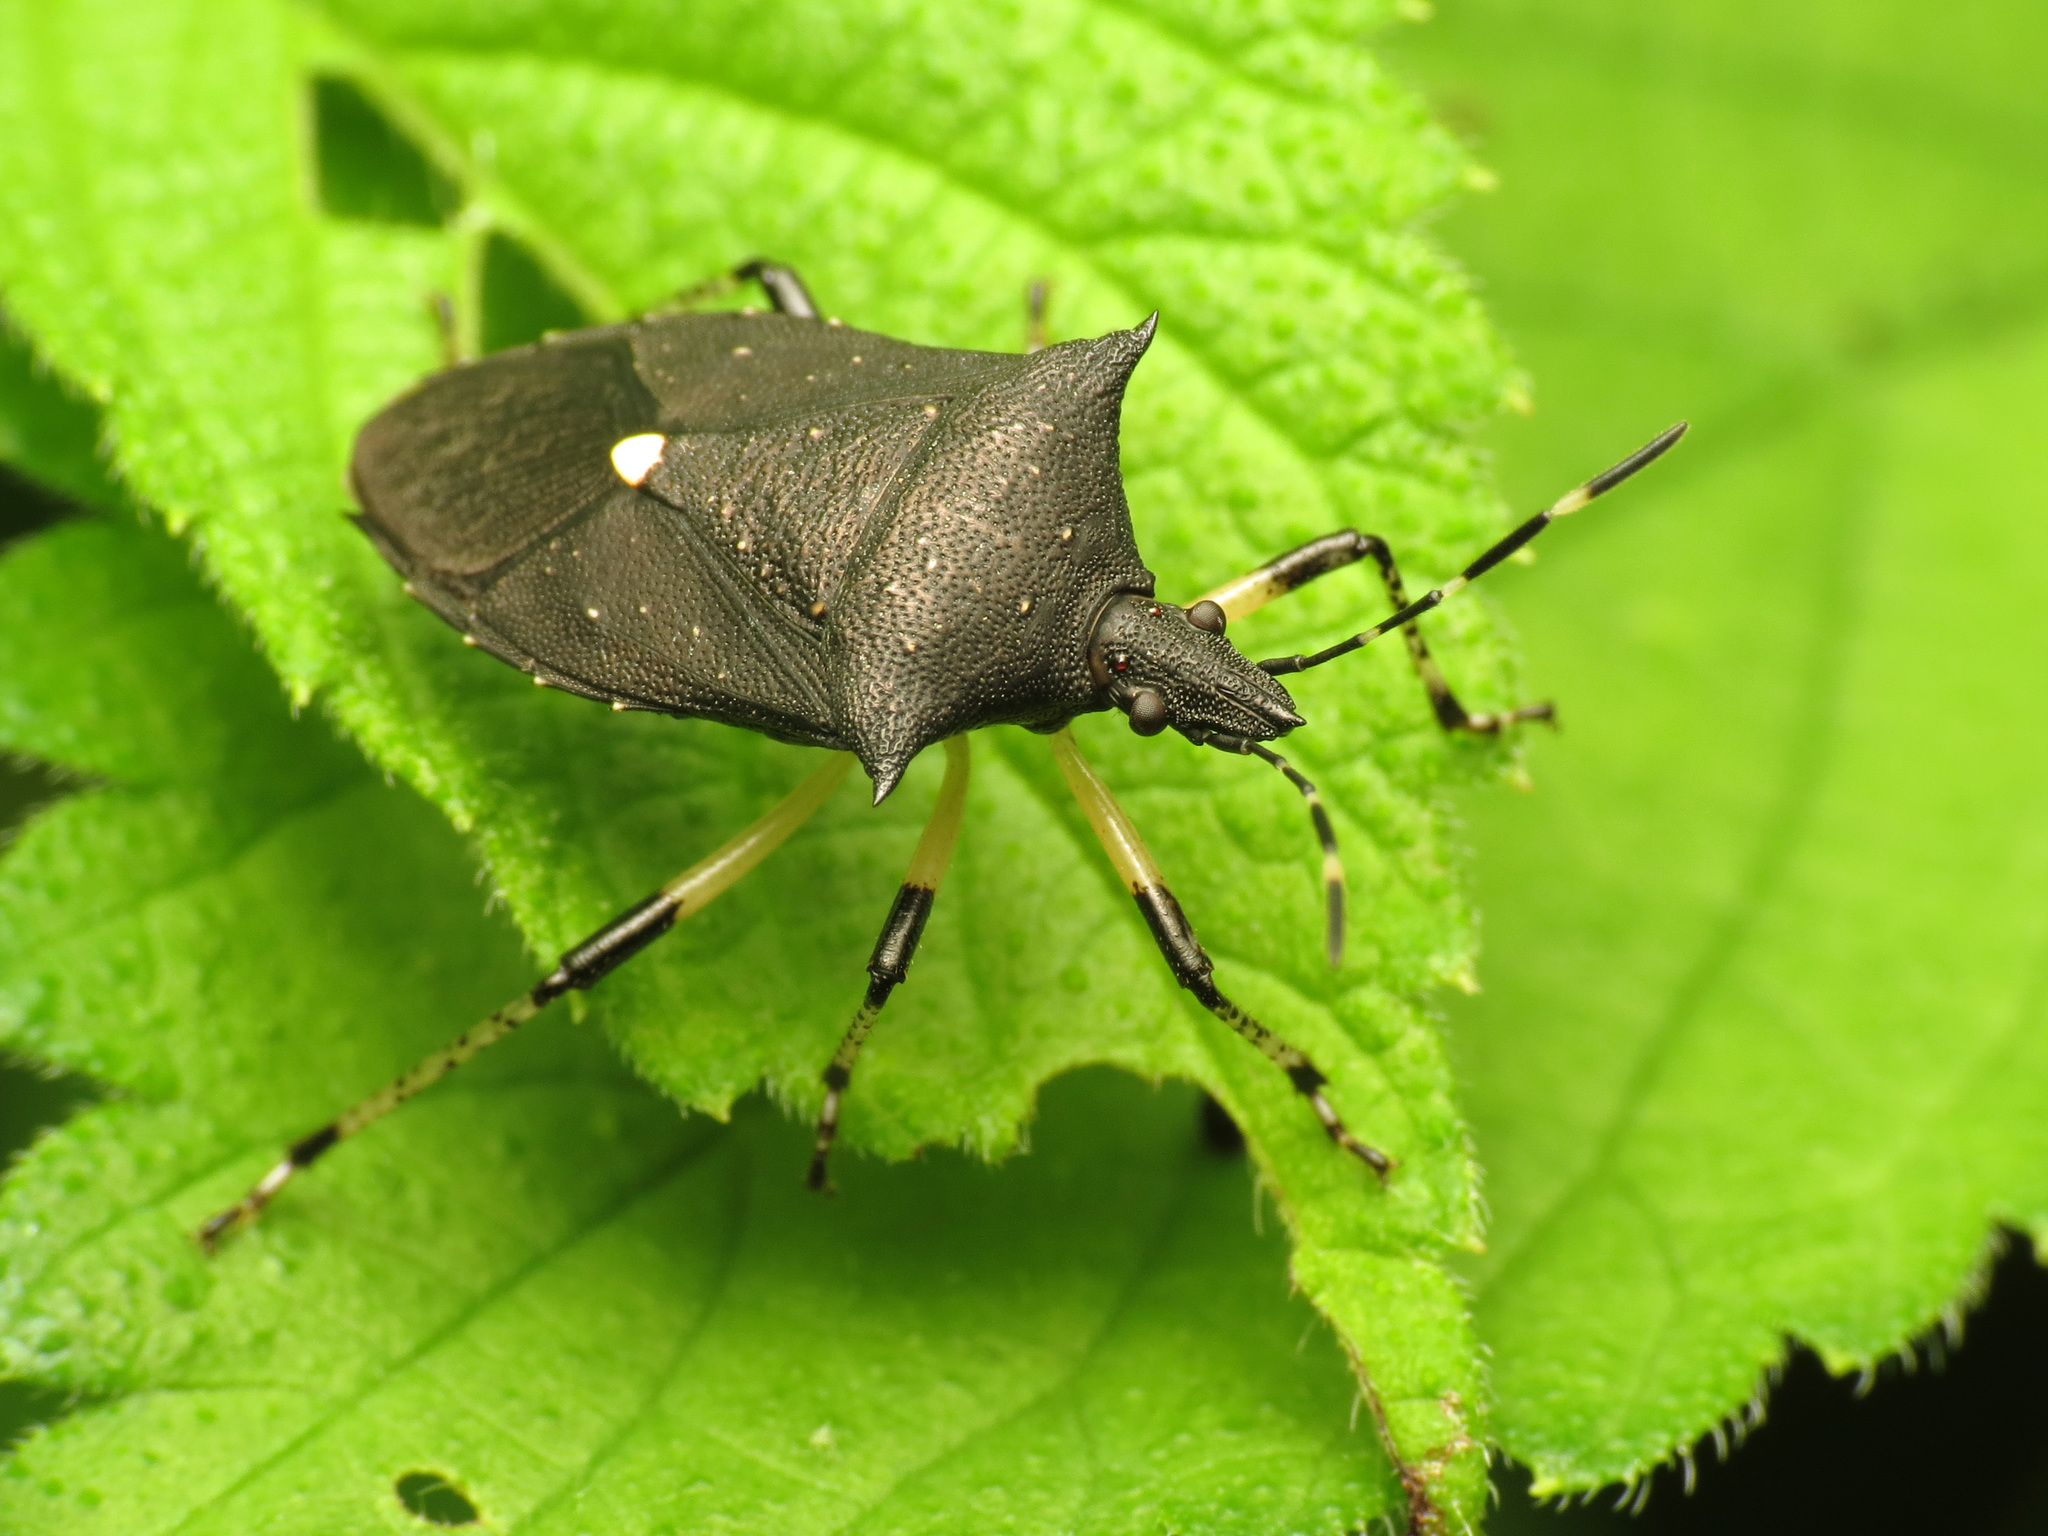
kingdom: Animalia
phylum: Arthropoda
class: Insecta
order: Hemiptera
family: Pentatomidae
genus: Proxys
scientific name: Proxys punctulatus
